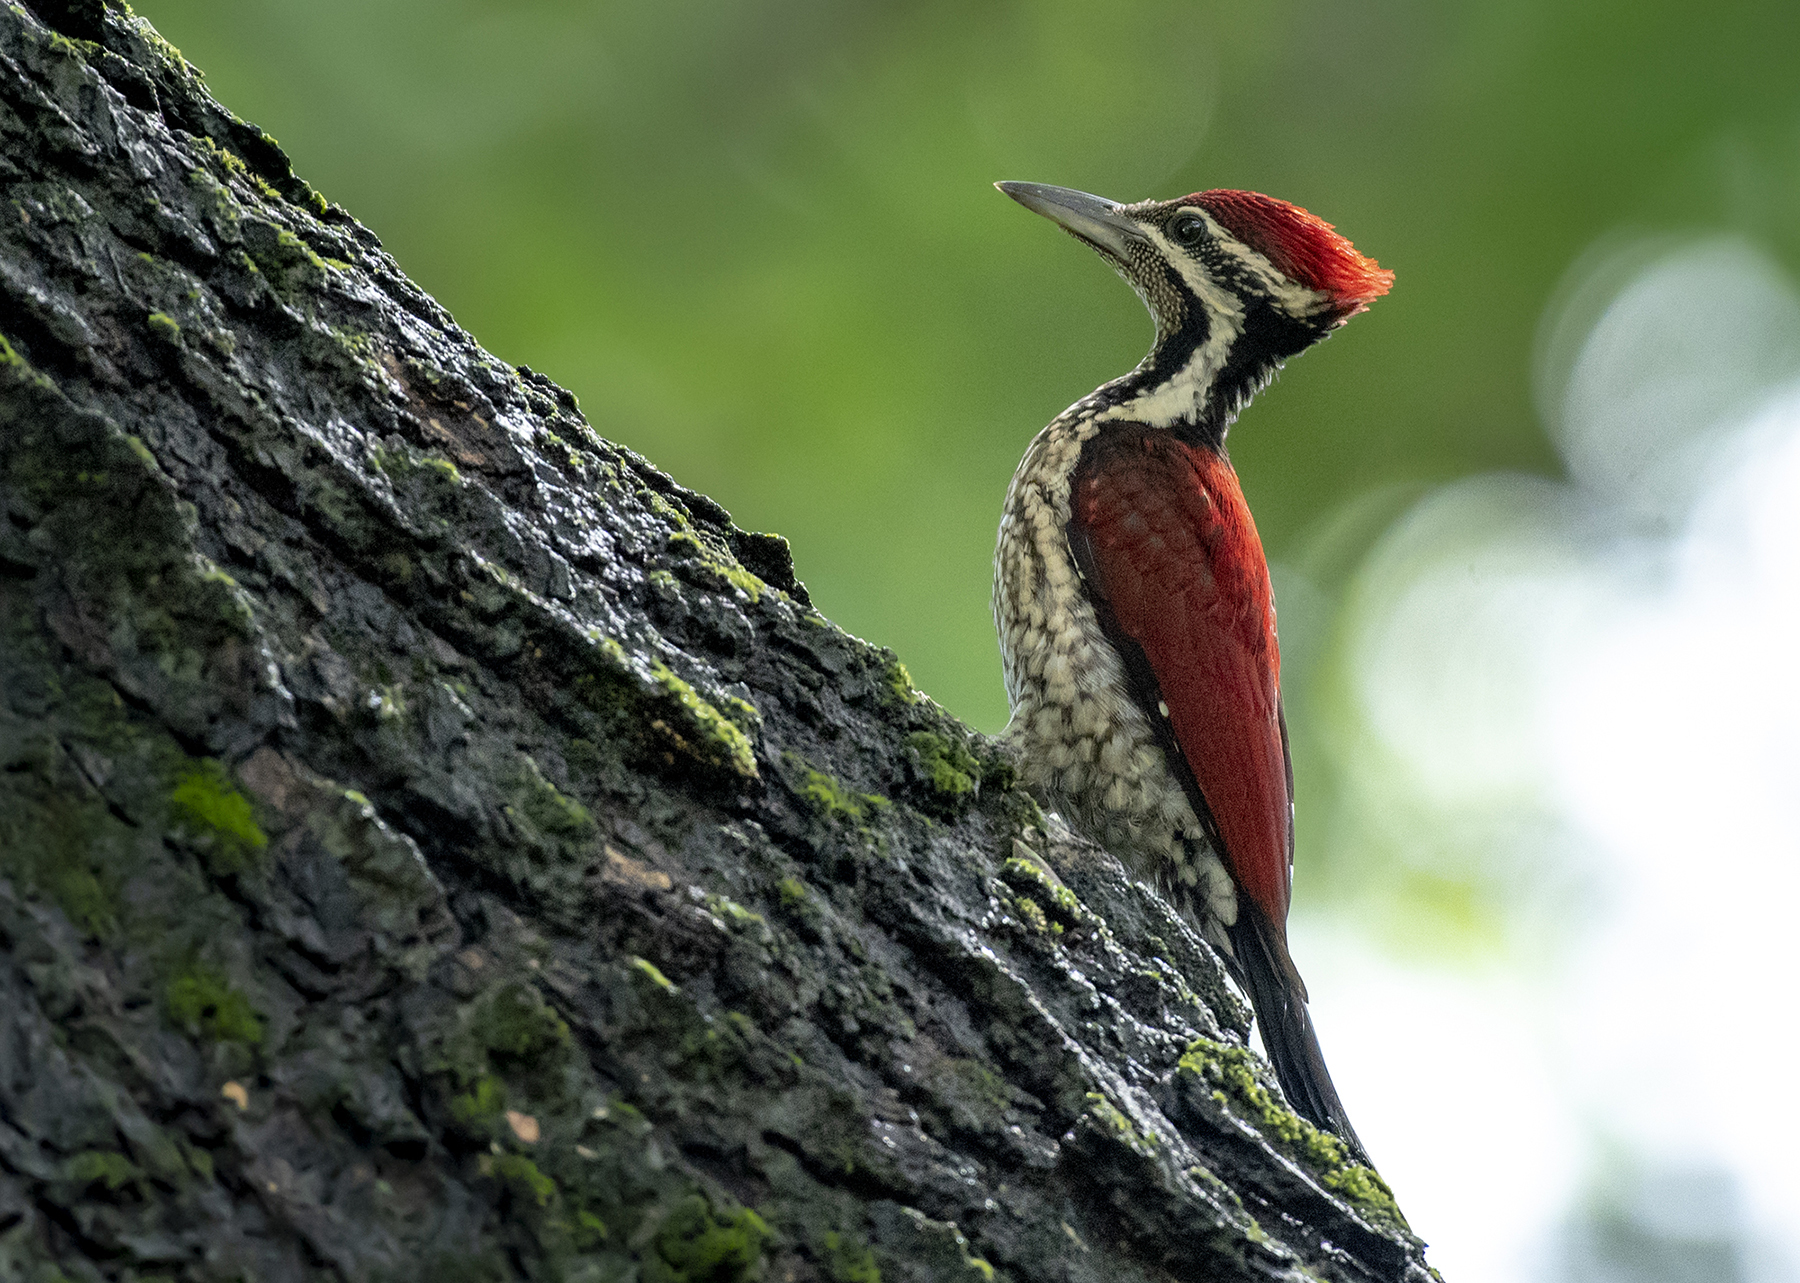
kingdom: Animalia
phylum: Chordata
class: Aves
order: Piciformes
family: Picidae
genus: Dinopium
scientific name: Dinopium psarodes
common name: Red-backed flameback
